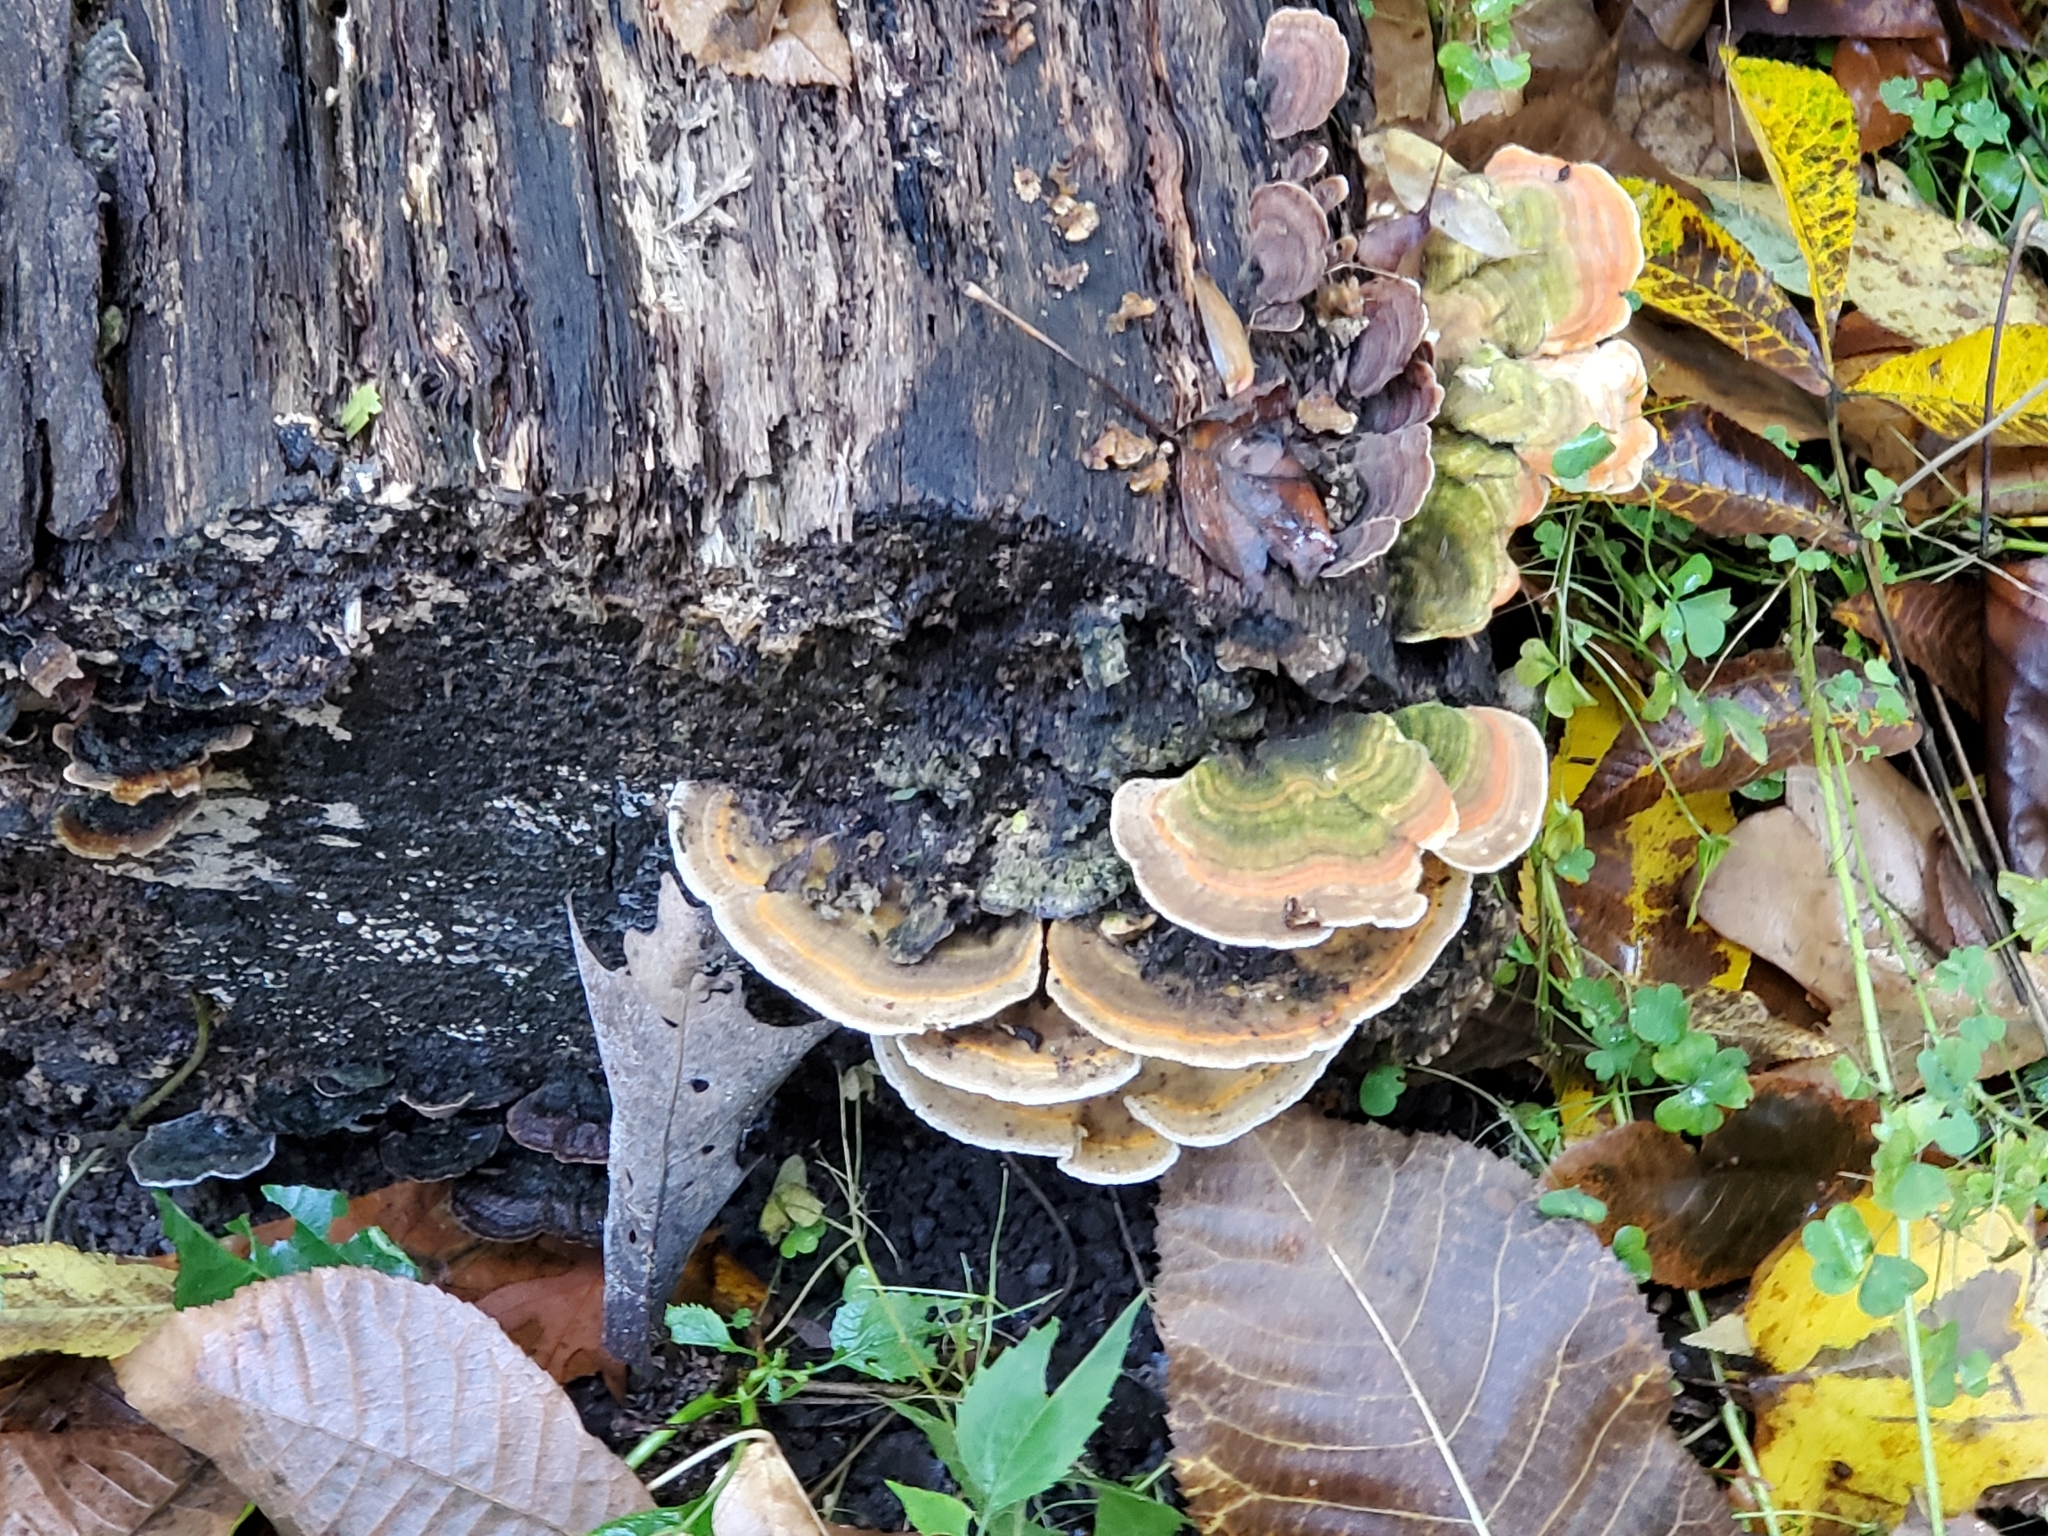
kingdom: Fungi
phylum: Basidiomycota
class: Agaricomycetes
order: Polyporales
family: Polyporaceae
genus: Lenzites
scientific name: Lenzites betulinus
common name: Birch mazegill
